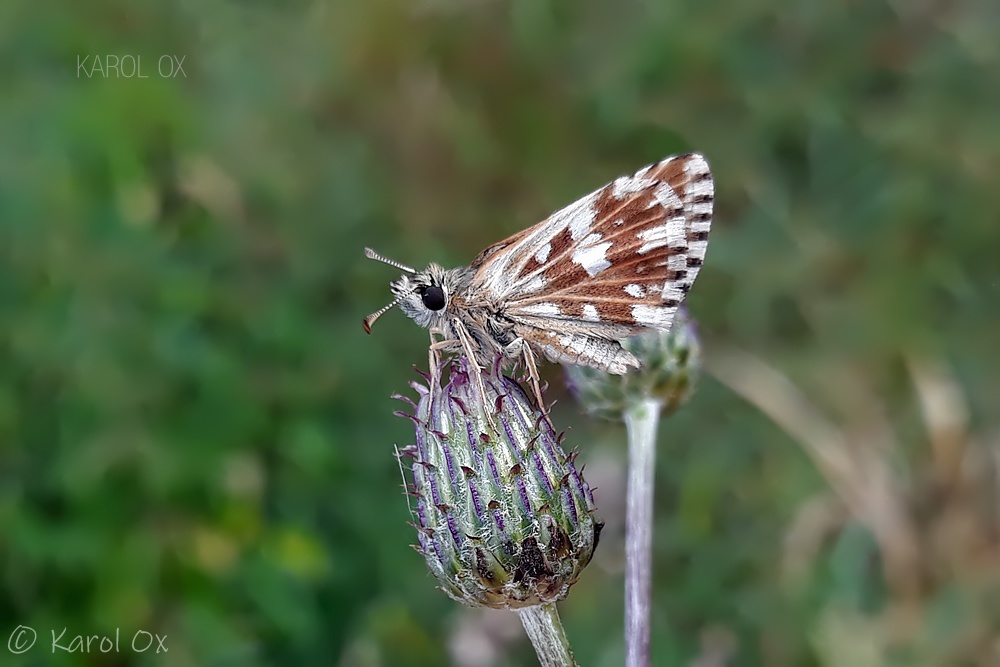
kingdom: Animalia
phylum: Arthropoda
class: Insecta
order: Lepidoptera
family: Hesperiidae
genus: Pyrgus
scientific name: Pyrgus malvae
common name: Grizzled skipper
